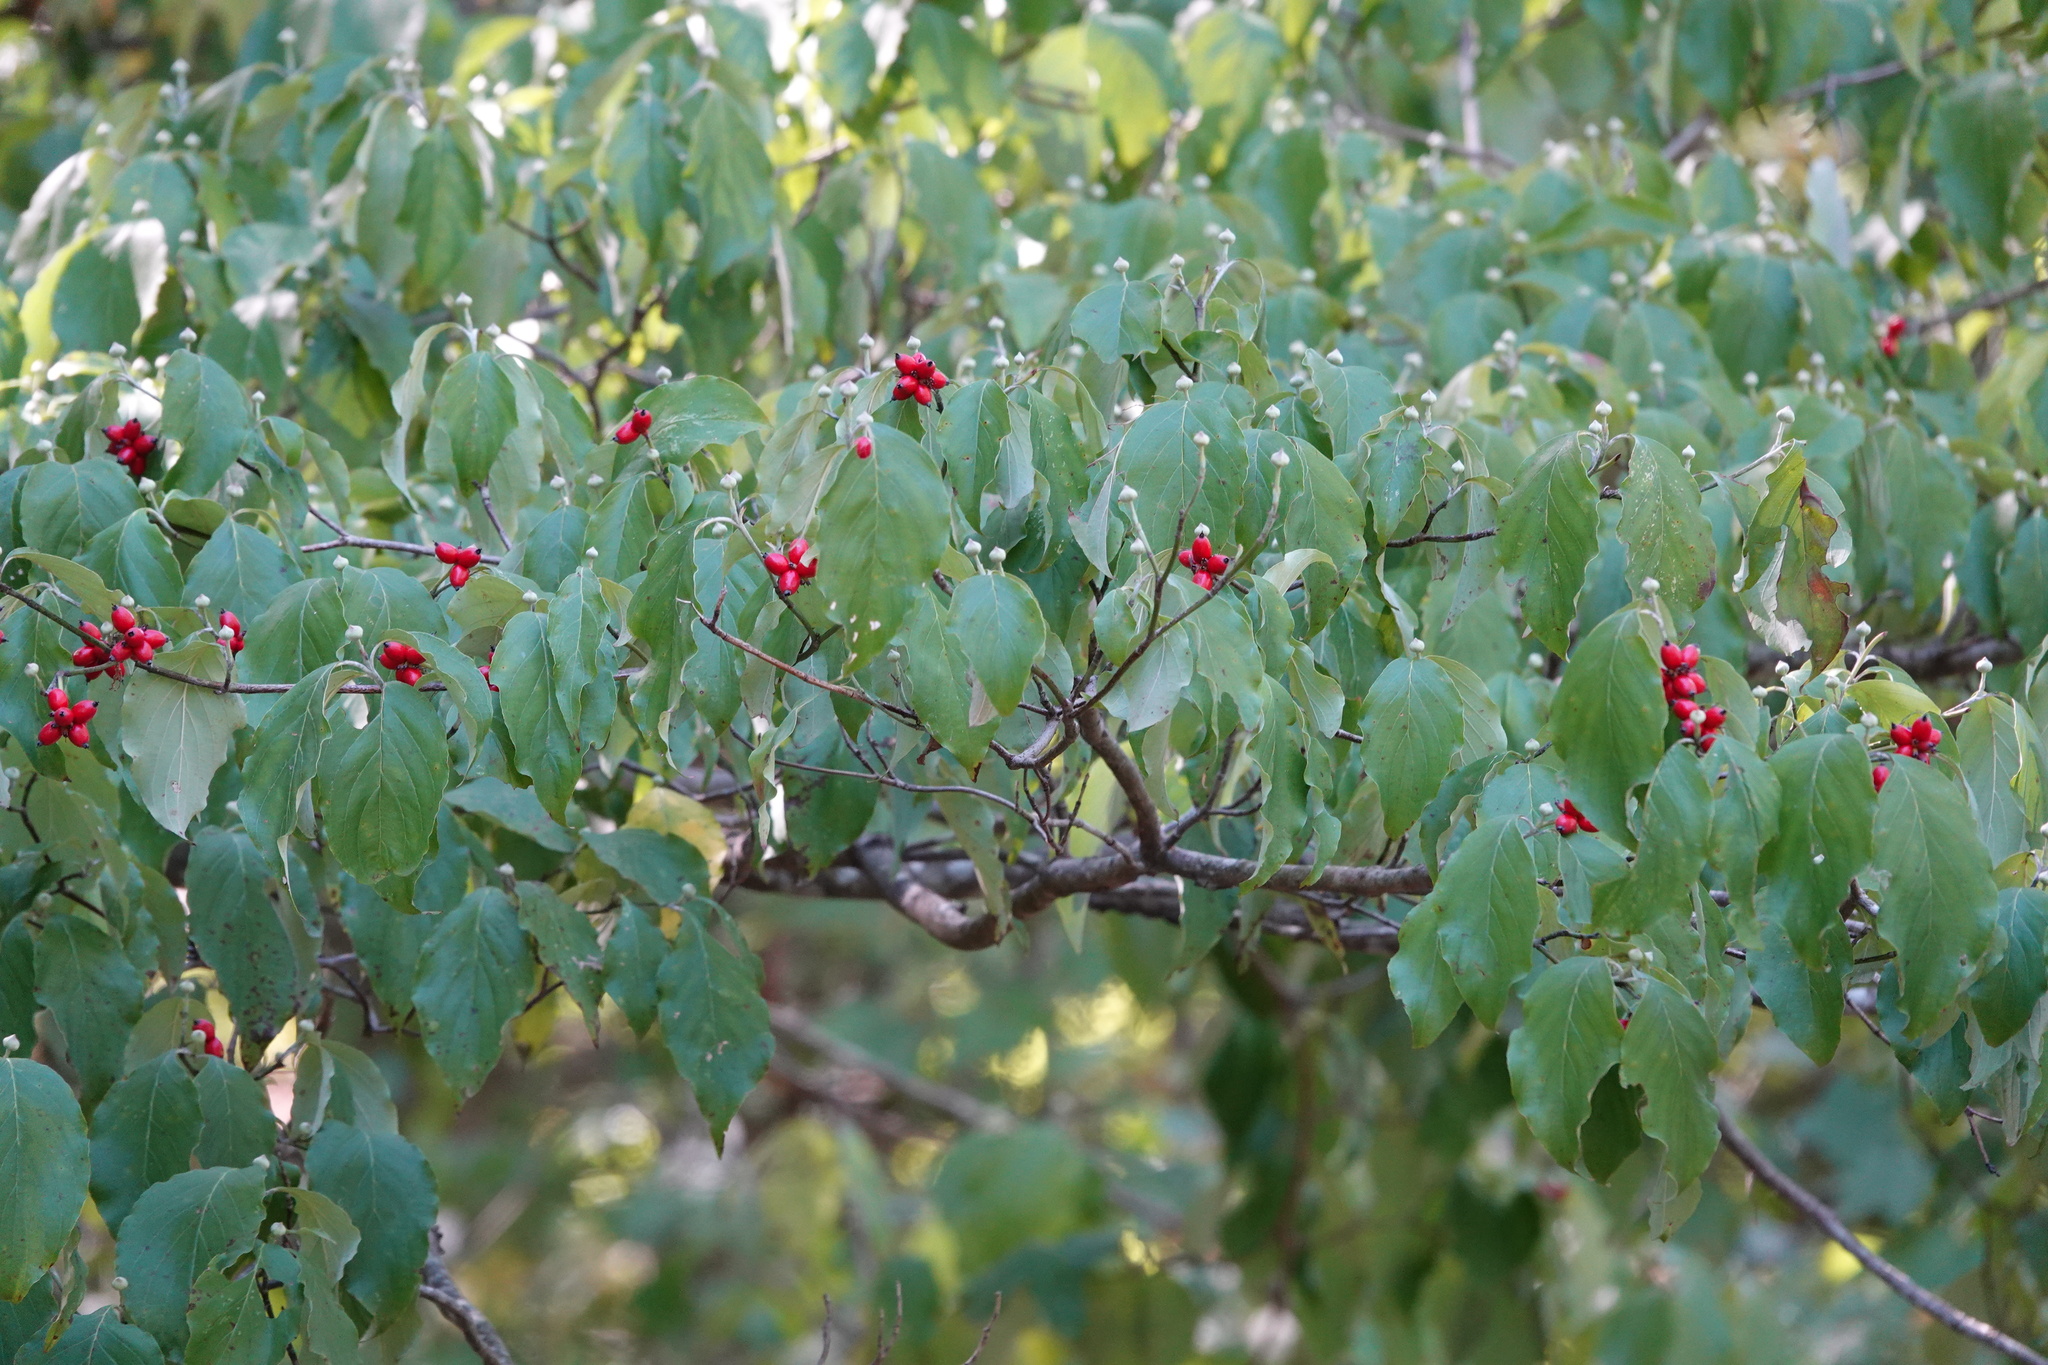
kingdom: Plantae
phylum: Tracheophyta
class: Magnoliopsida
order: Cornales
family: Cornaceae
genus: Cornus
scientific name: Cornus florida
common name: Flowering dogwood
